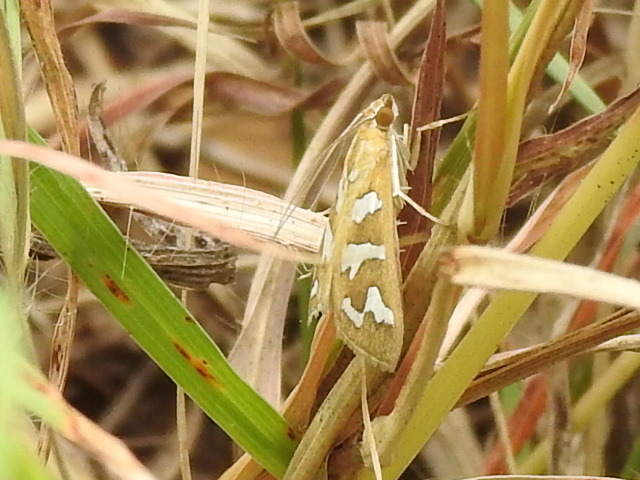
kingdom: Animalia
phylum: Arthropoda
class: Insecta
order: Lepidoptera
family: Crambidae
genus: Diastictis
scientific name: Diastictis fracturalis
